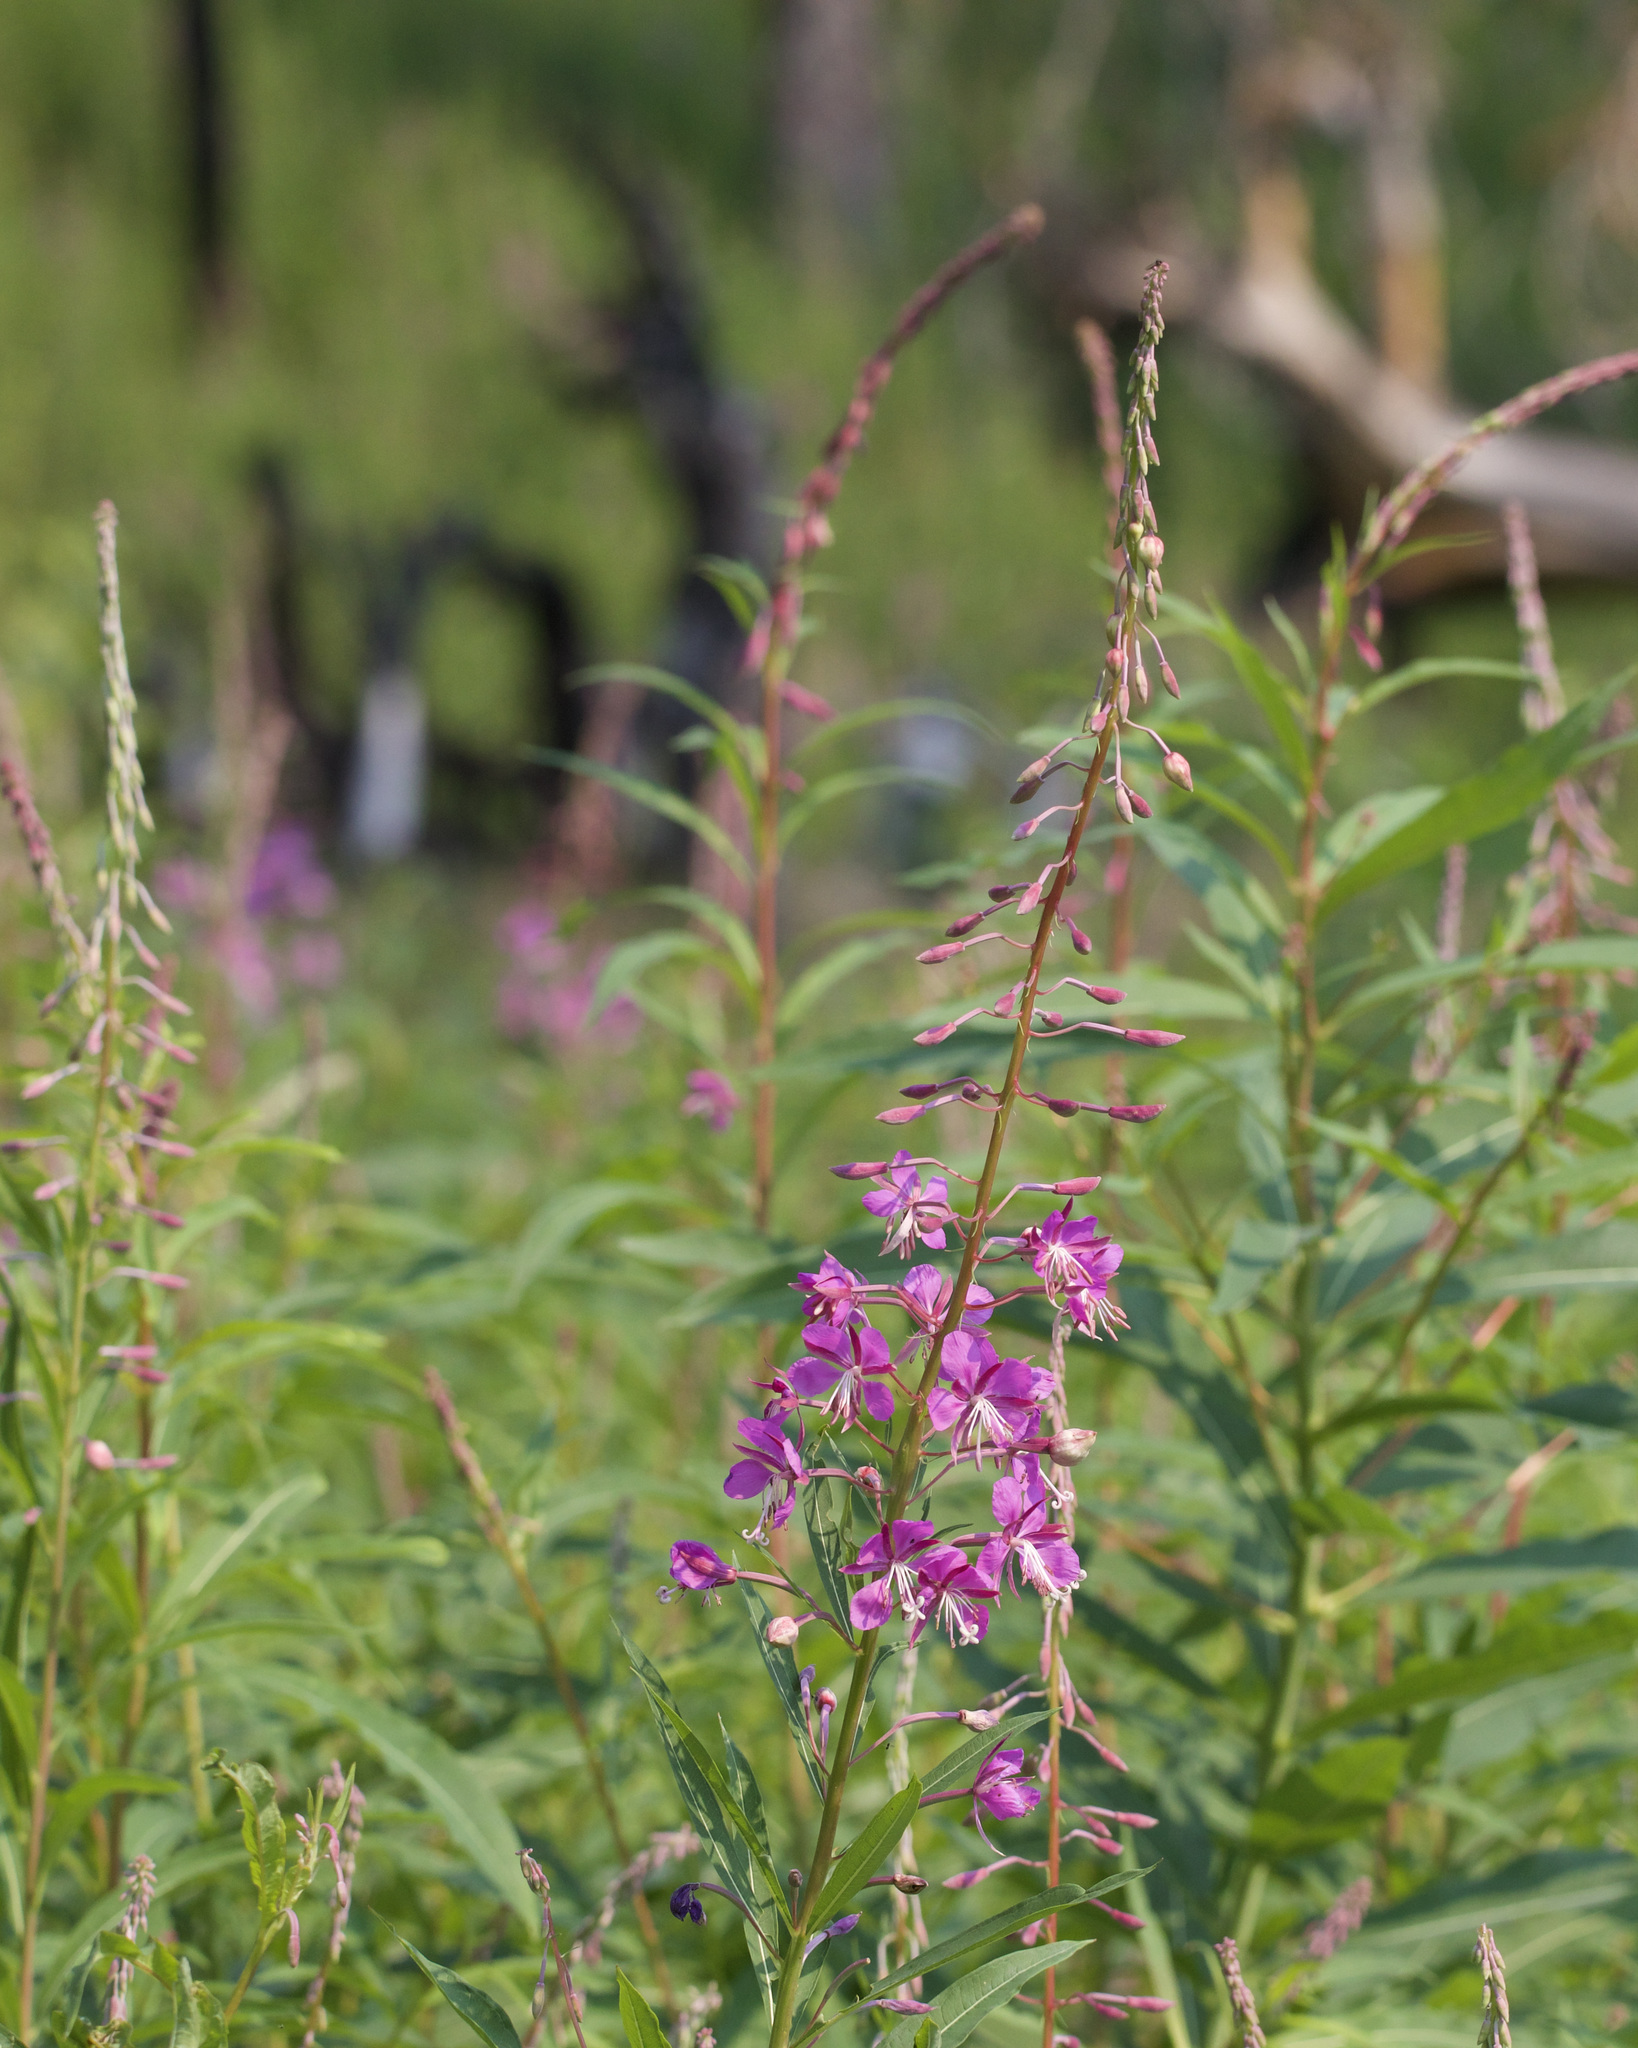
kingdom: Plantae
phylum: Tracheophyta
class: Magnoliopsida
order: Myrtales
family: Onagraceae
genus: Chamaenerion
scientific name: Chamaenerion angustifolium
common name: Fireweed
